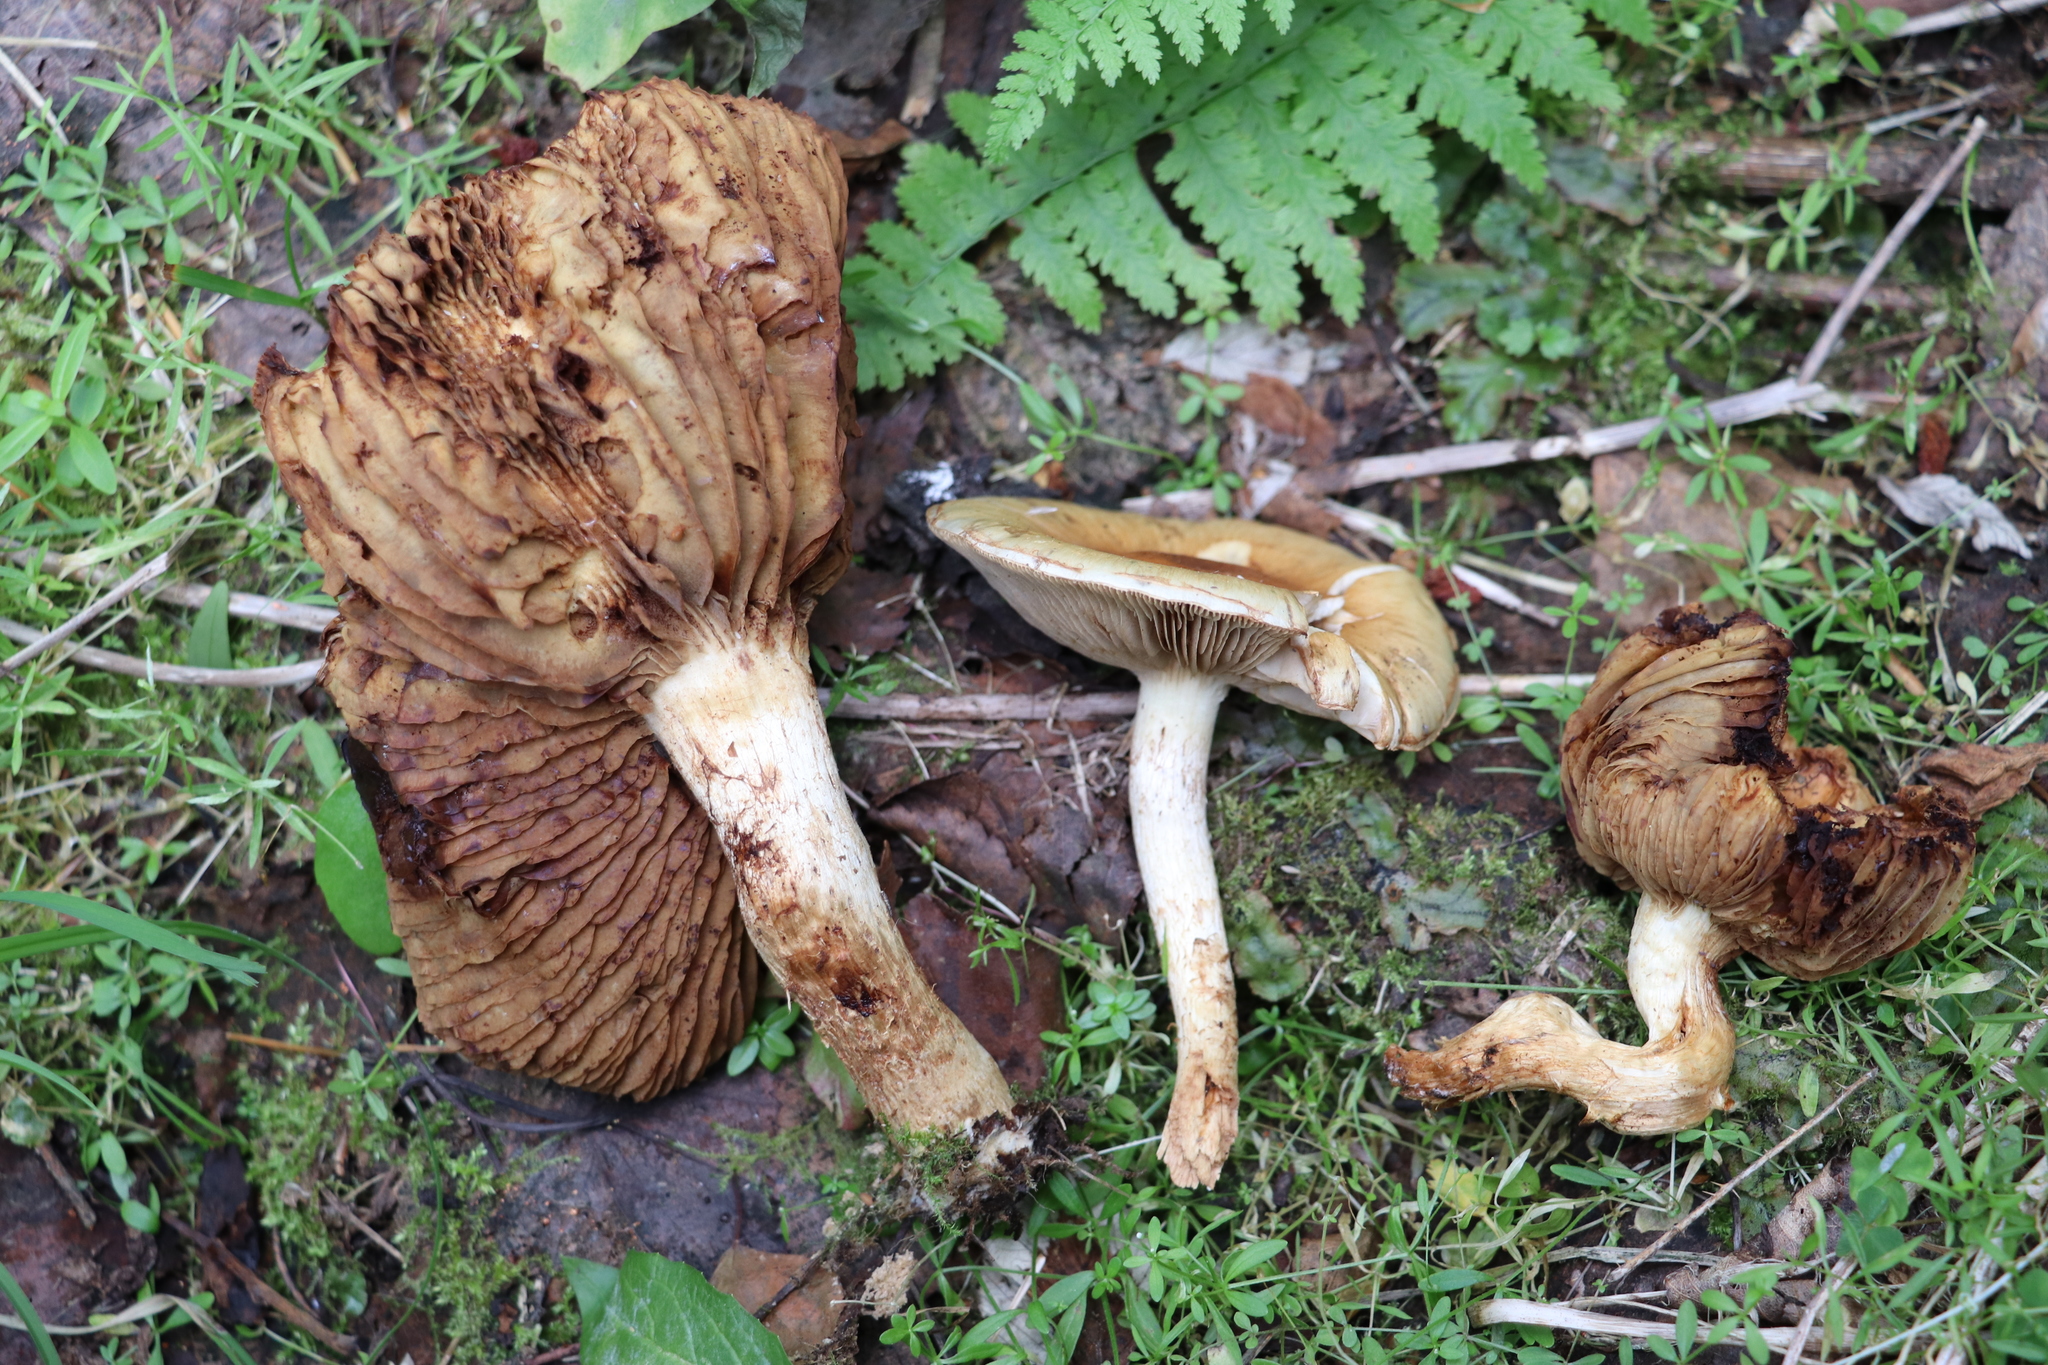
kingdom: Fungi
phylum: Basidiomycota
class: Agaricomycetes
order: Agaricales
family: Strophariaceae
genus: Pholiota
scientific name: Pholiota elegans
